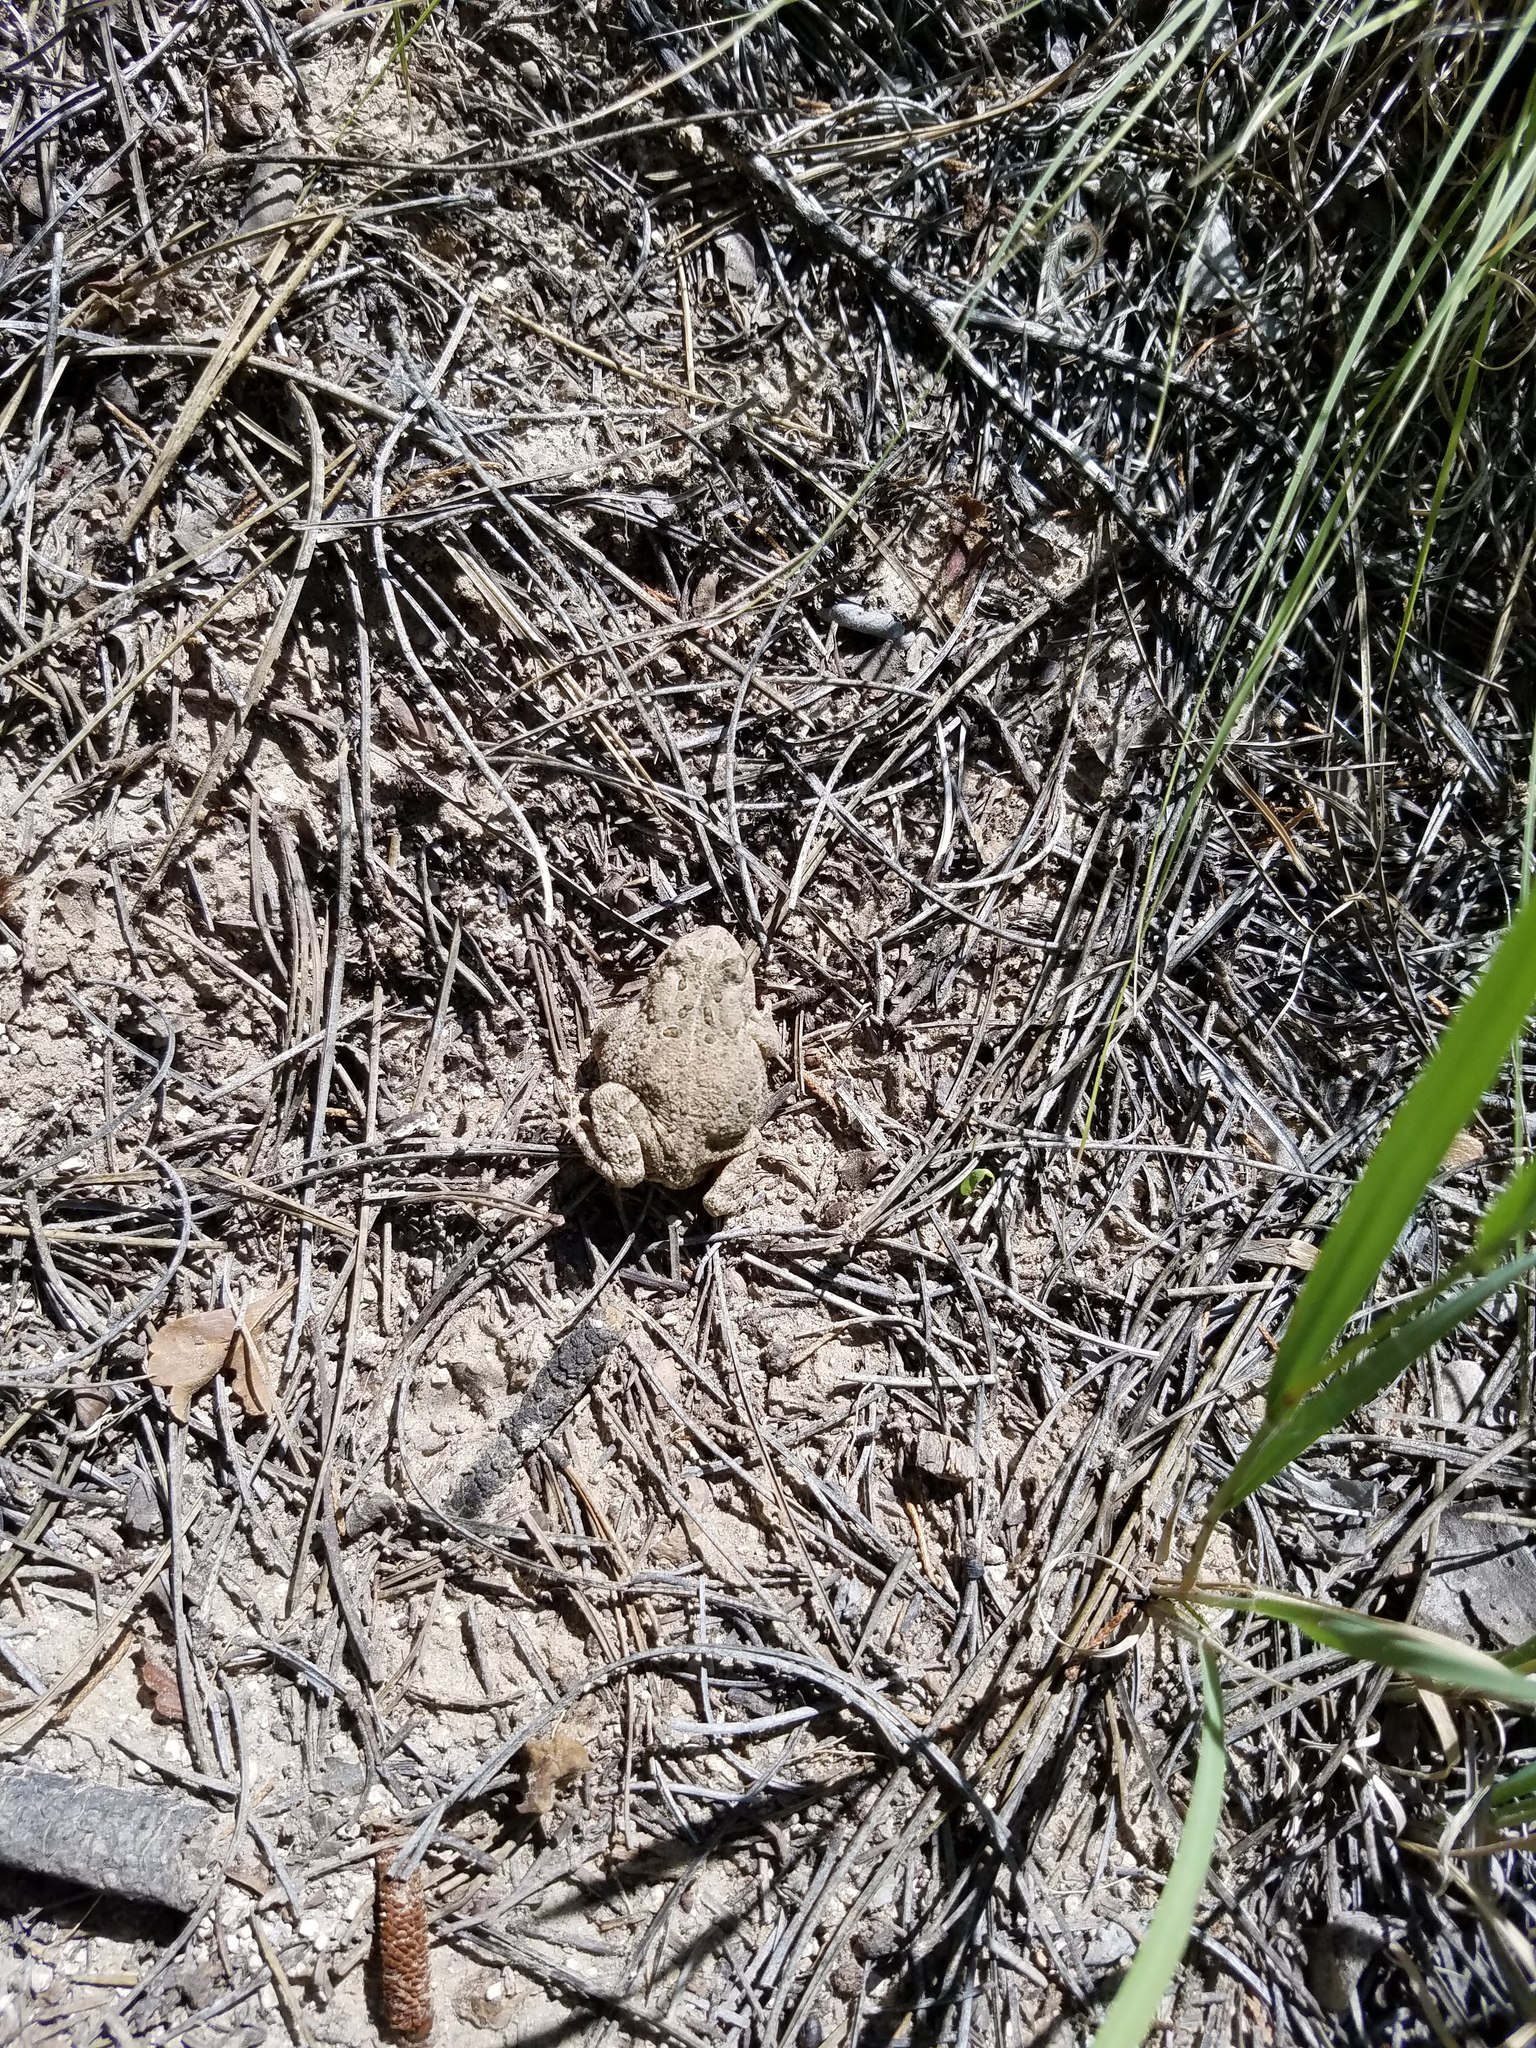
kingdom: Animalia
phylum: Chordata
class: Amphibia
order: Anura
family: Bufonidae
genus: Anaxyrus
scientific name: Anaxyrus woodhousii
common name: Woodhouse's toad
